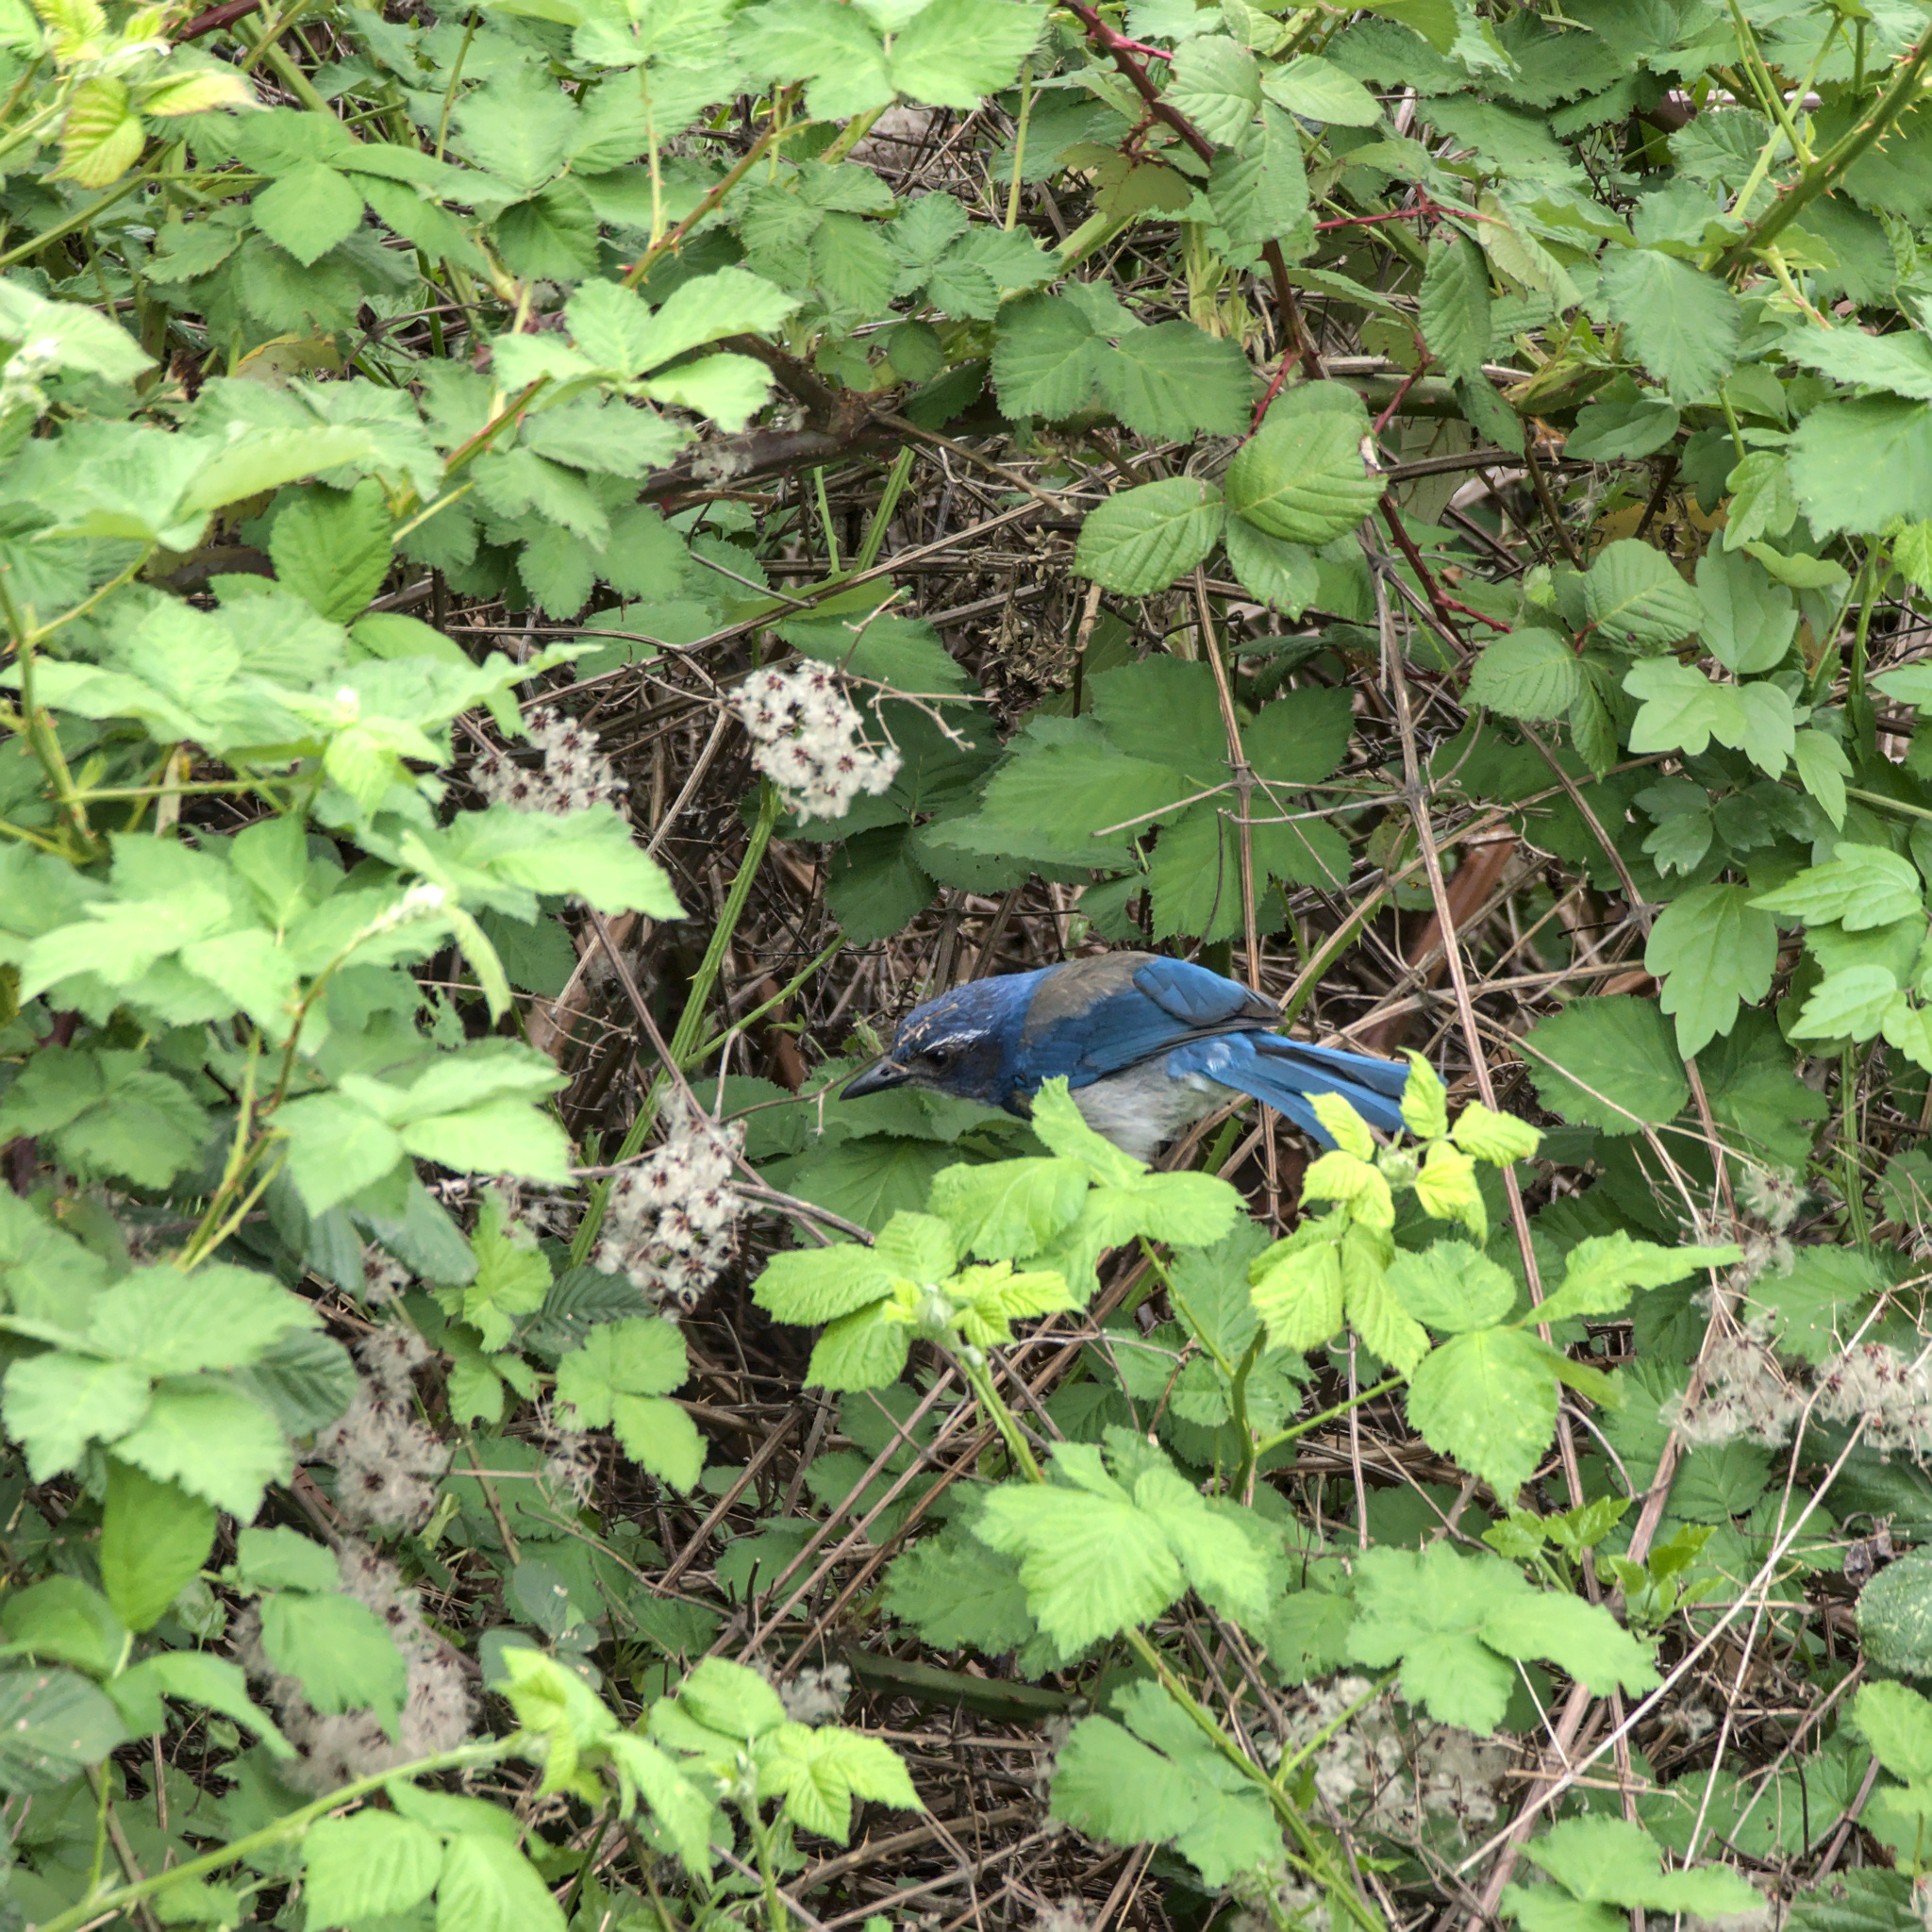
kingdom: Animalia
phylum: Chordata
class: Aves
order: Passeriformes
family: Corvidae
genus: Aphelocoma
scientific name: Aphelocoma californica
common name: California scrub-jay
